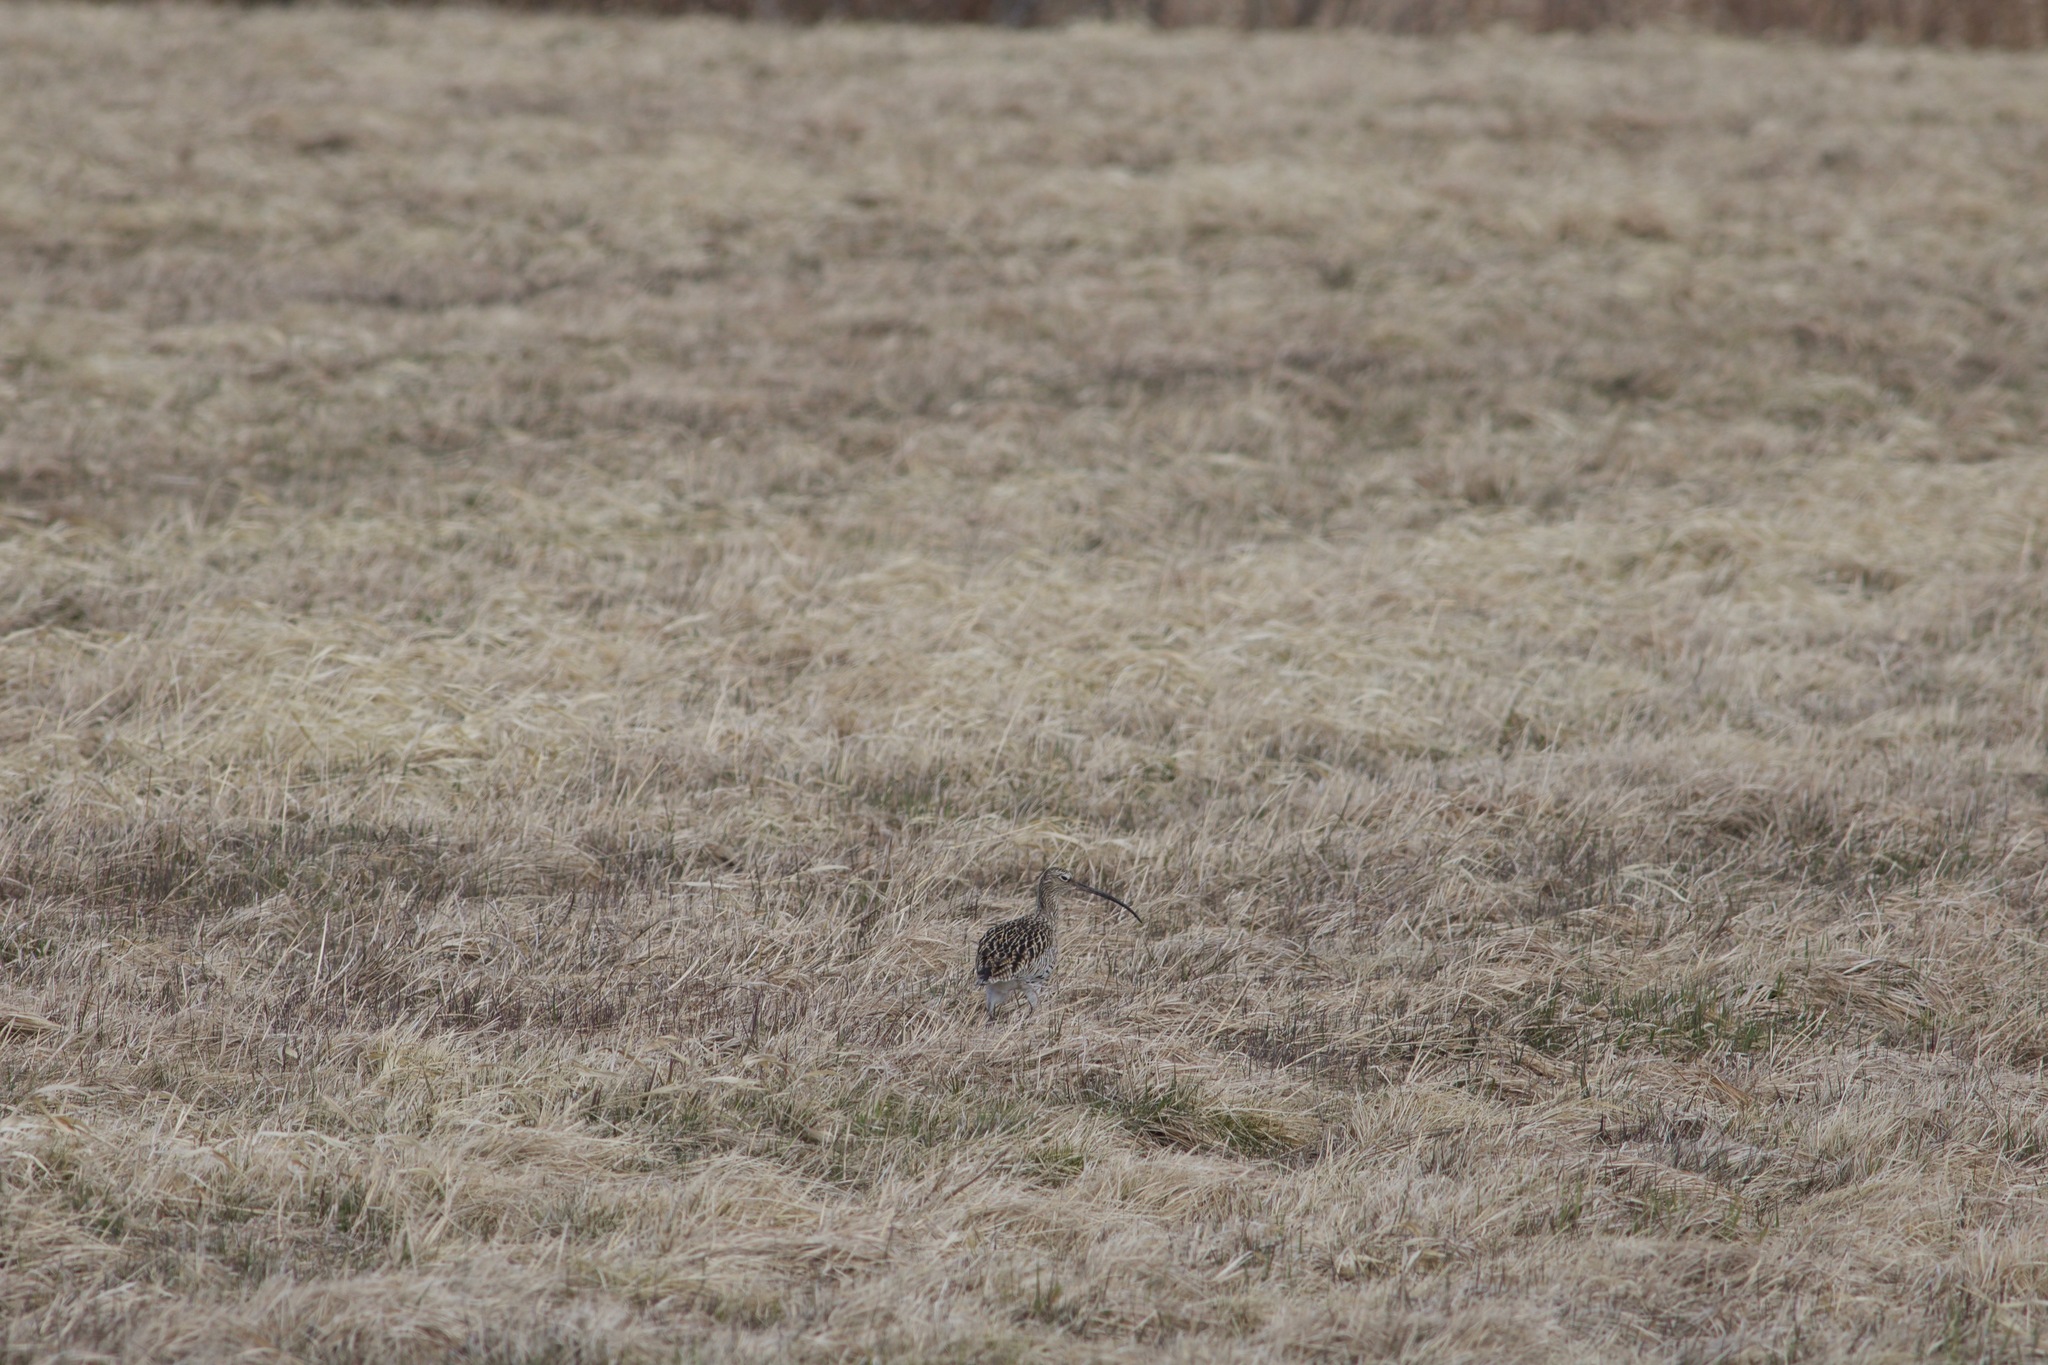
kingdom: Animalia
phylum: Chordata
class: Aves
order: Charadriiformes
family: Scolopacidae
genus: Numenius
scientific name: Numenius arquata
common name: Eurasian curlew
